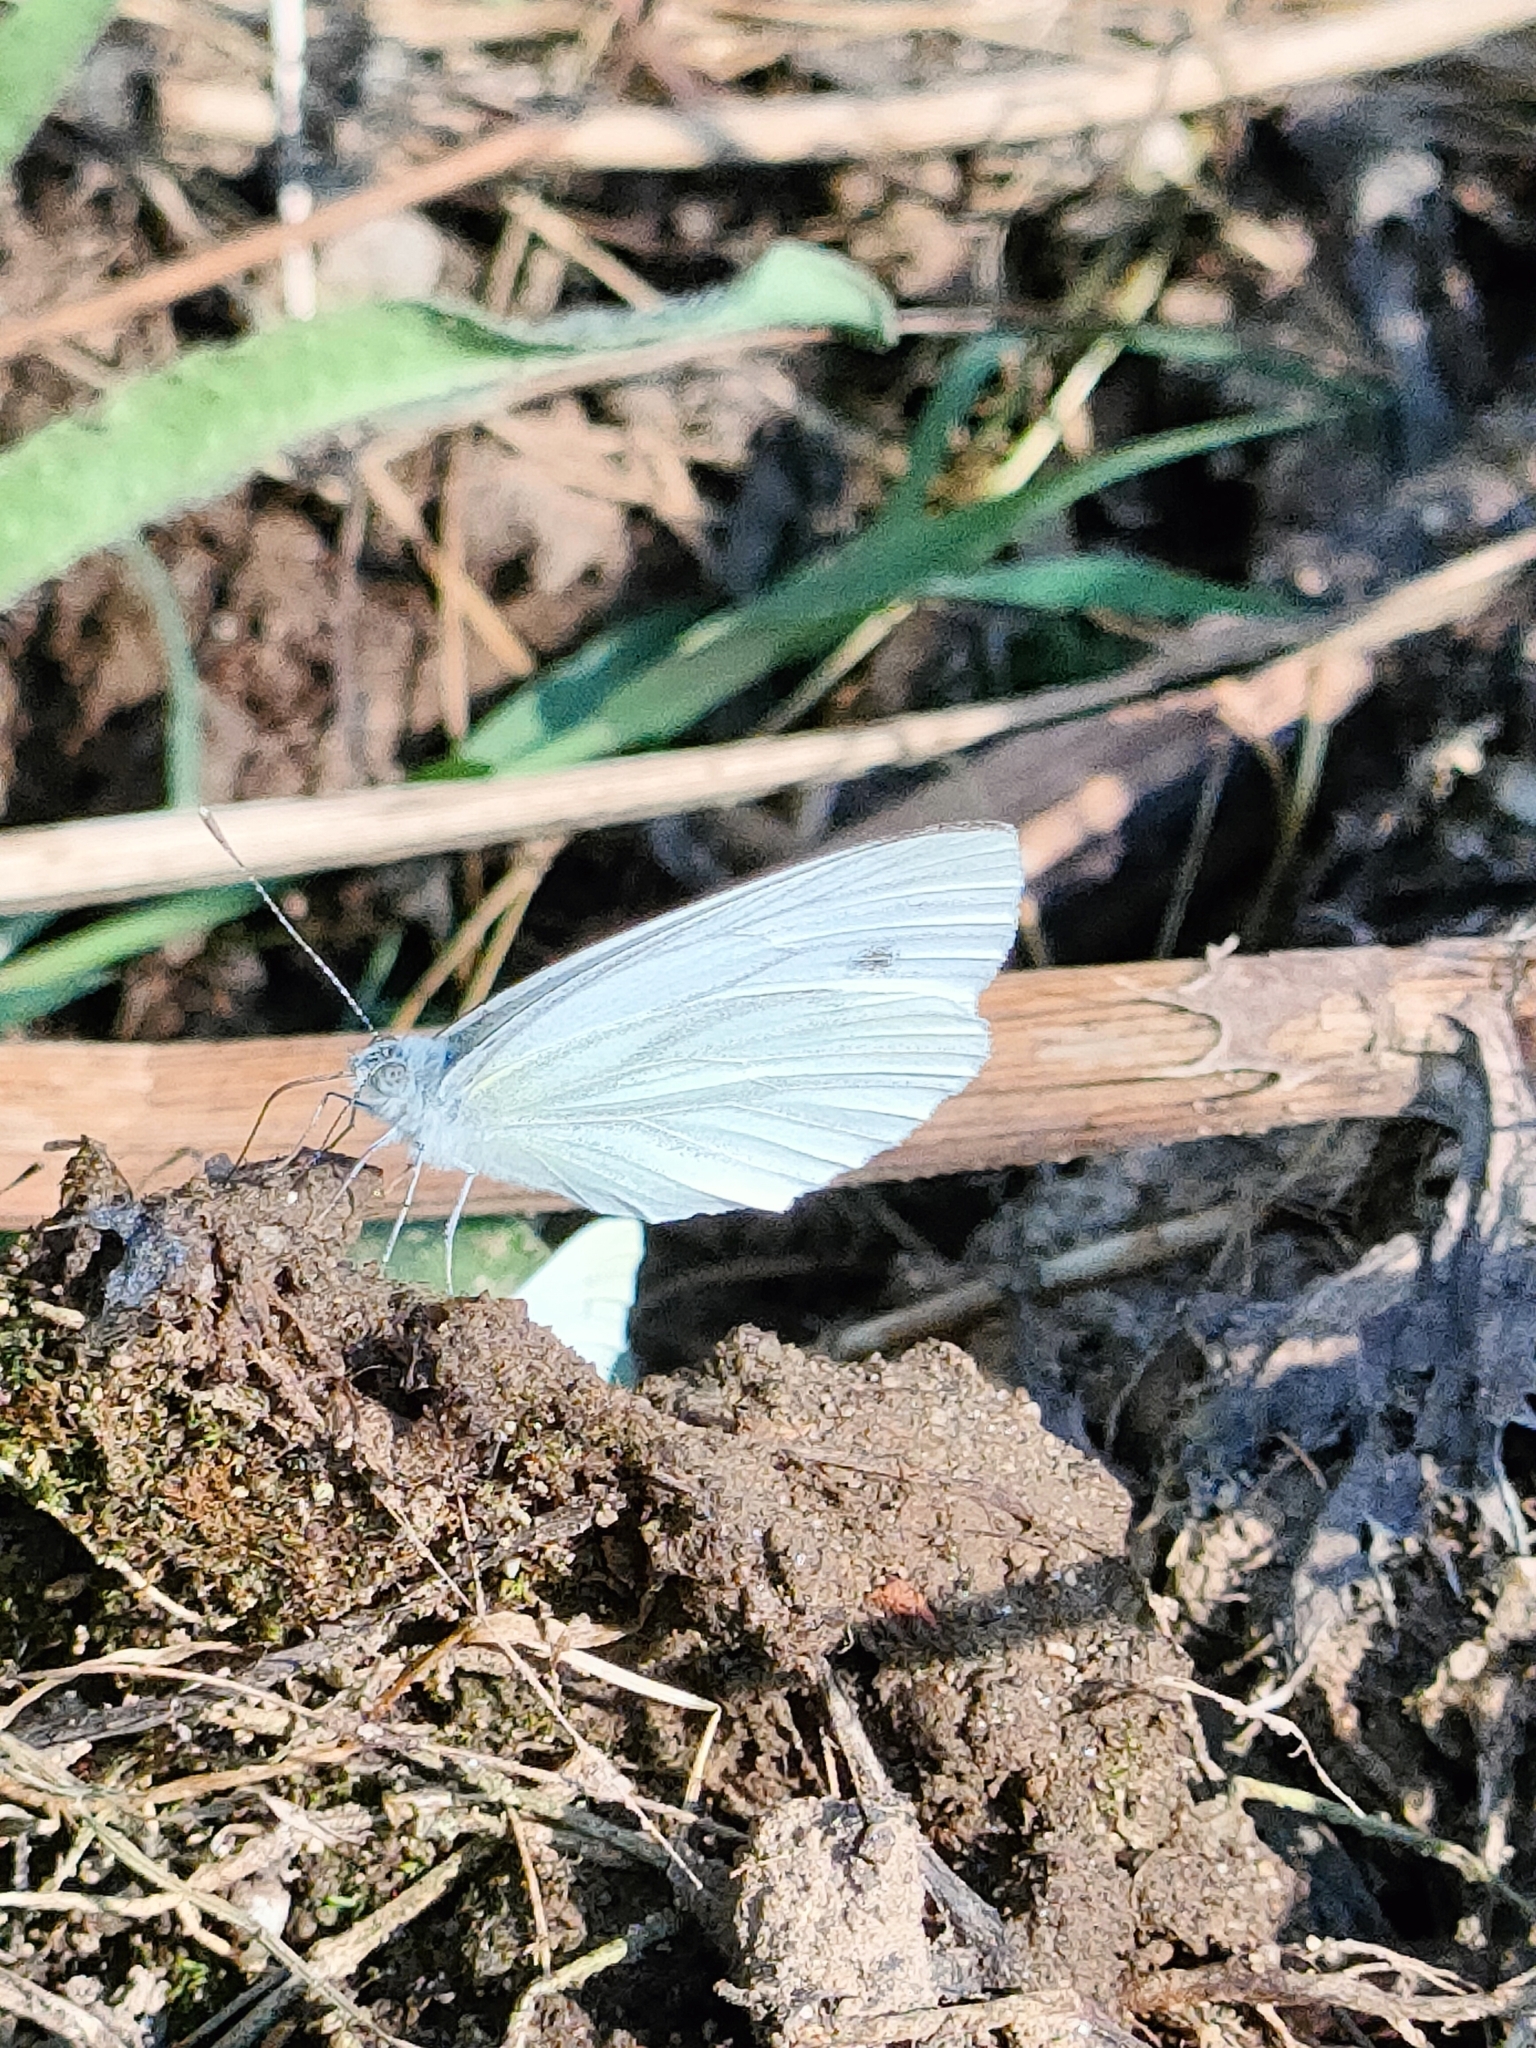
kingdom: Animalia
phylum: Arthropoda
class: Insecta
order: Lepidoptera
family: Pieridae
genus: Pieris
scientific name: Pieris napi
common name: Green-veined white
